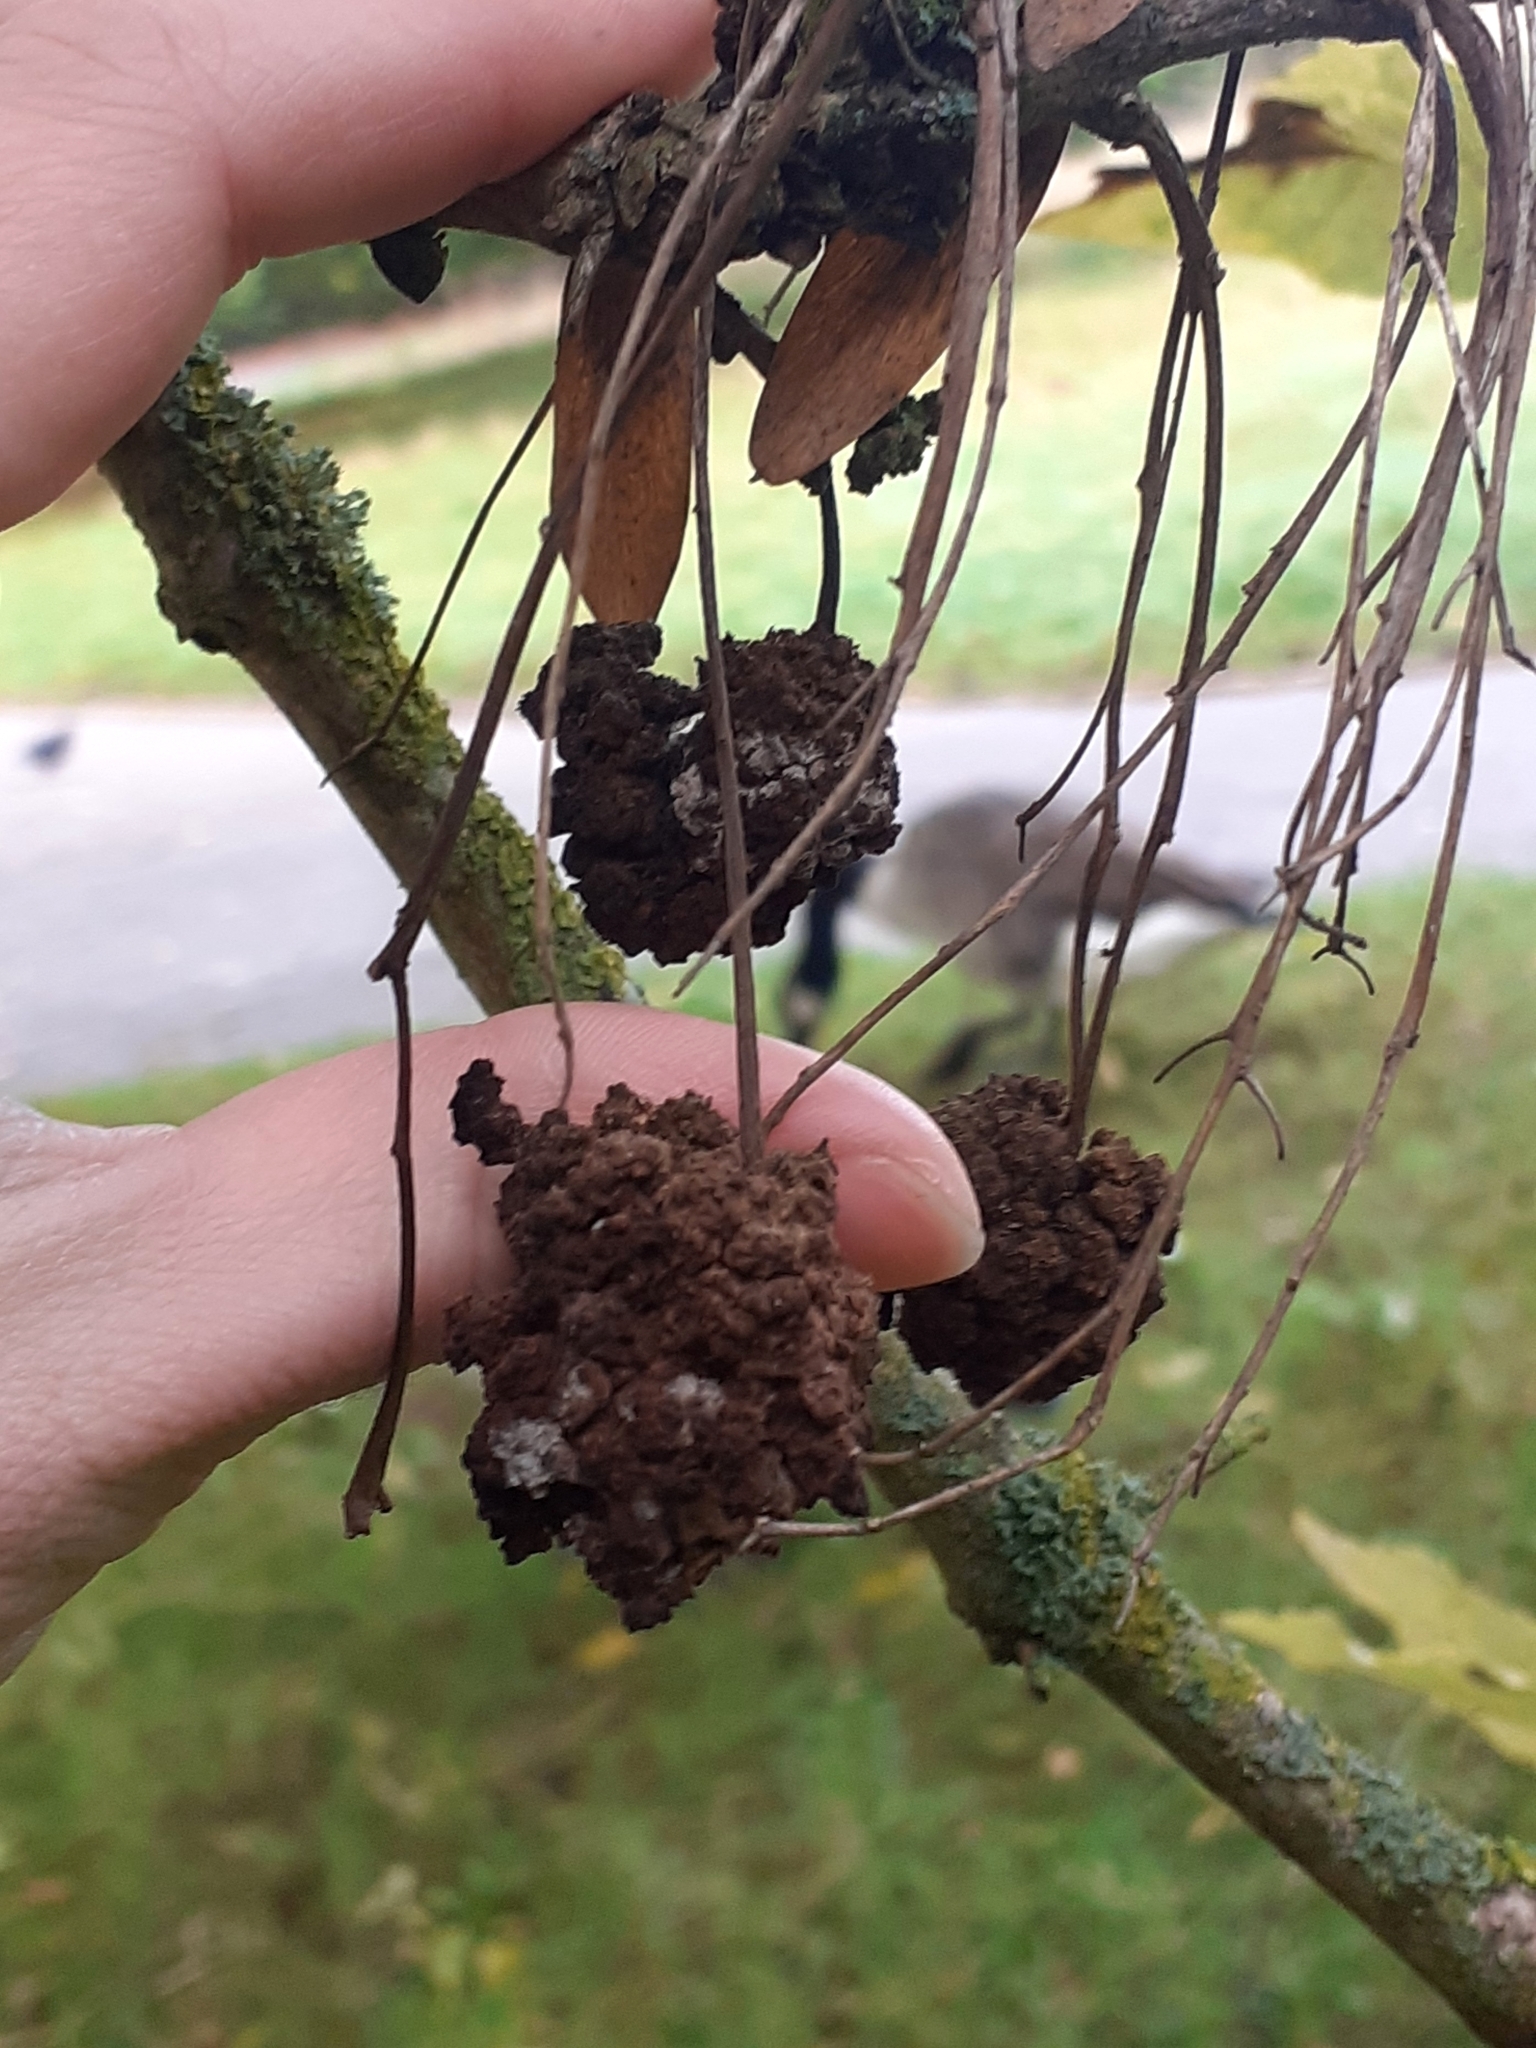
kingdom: Animalia
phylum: Arthropoda
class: Arachnida
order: Trombidiformes
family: Eriophyidae
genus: Aceria
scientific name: Aceria fraxinivora
